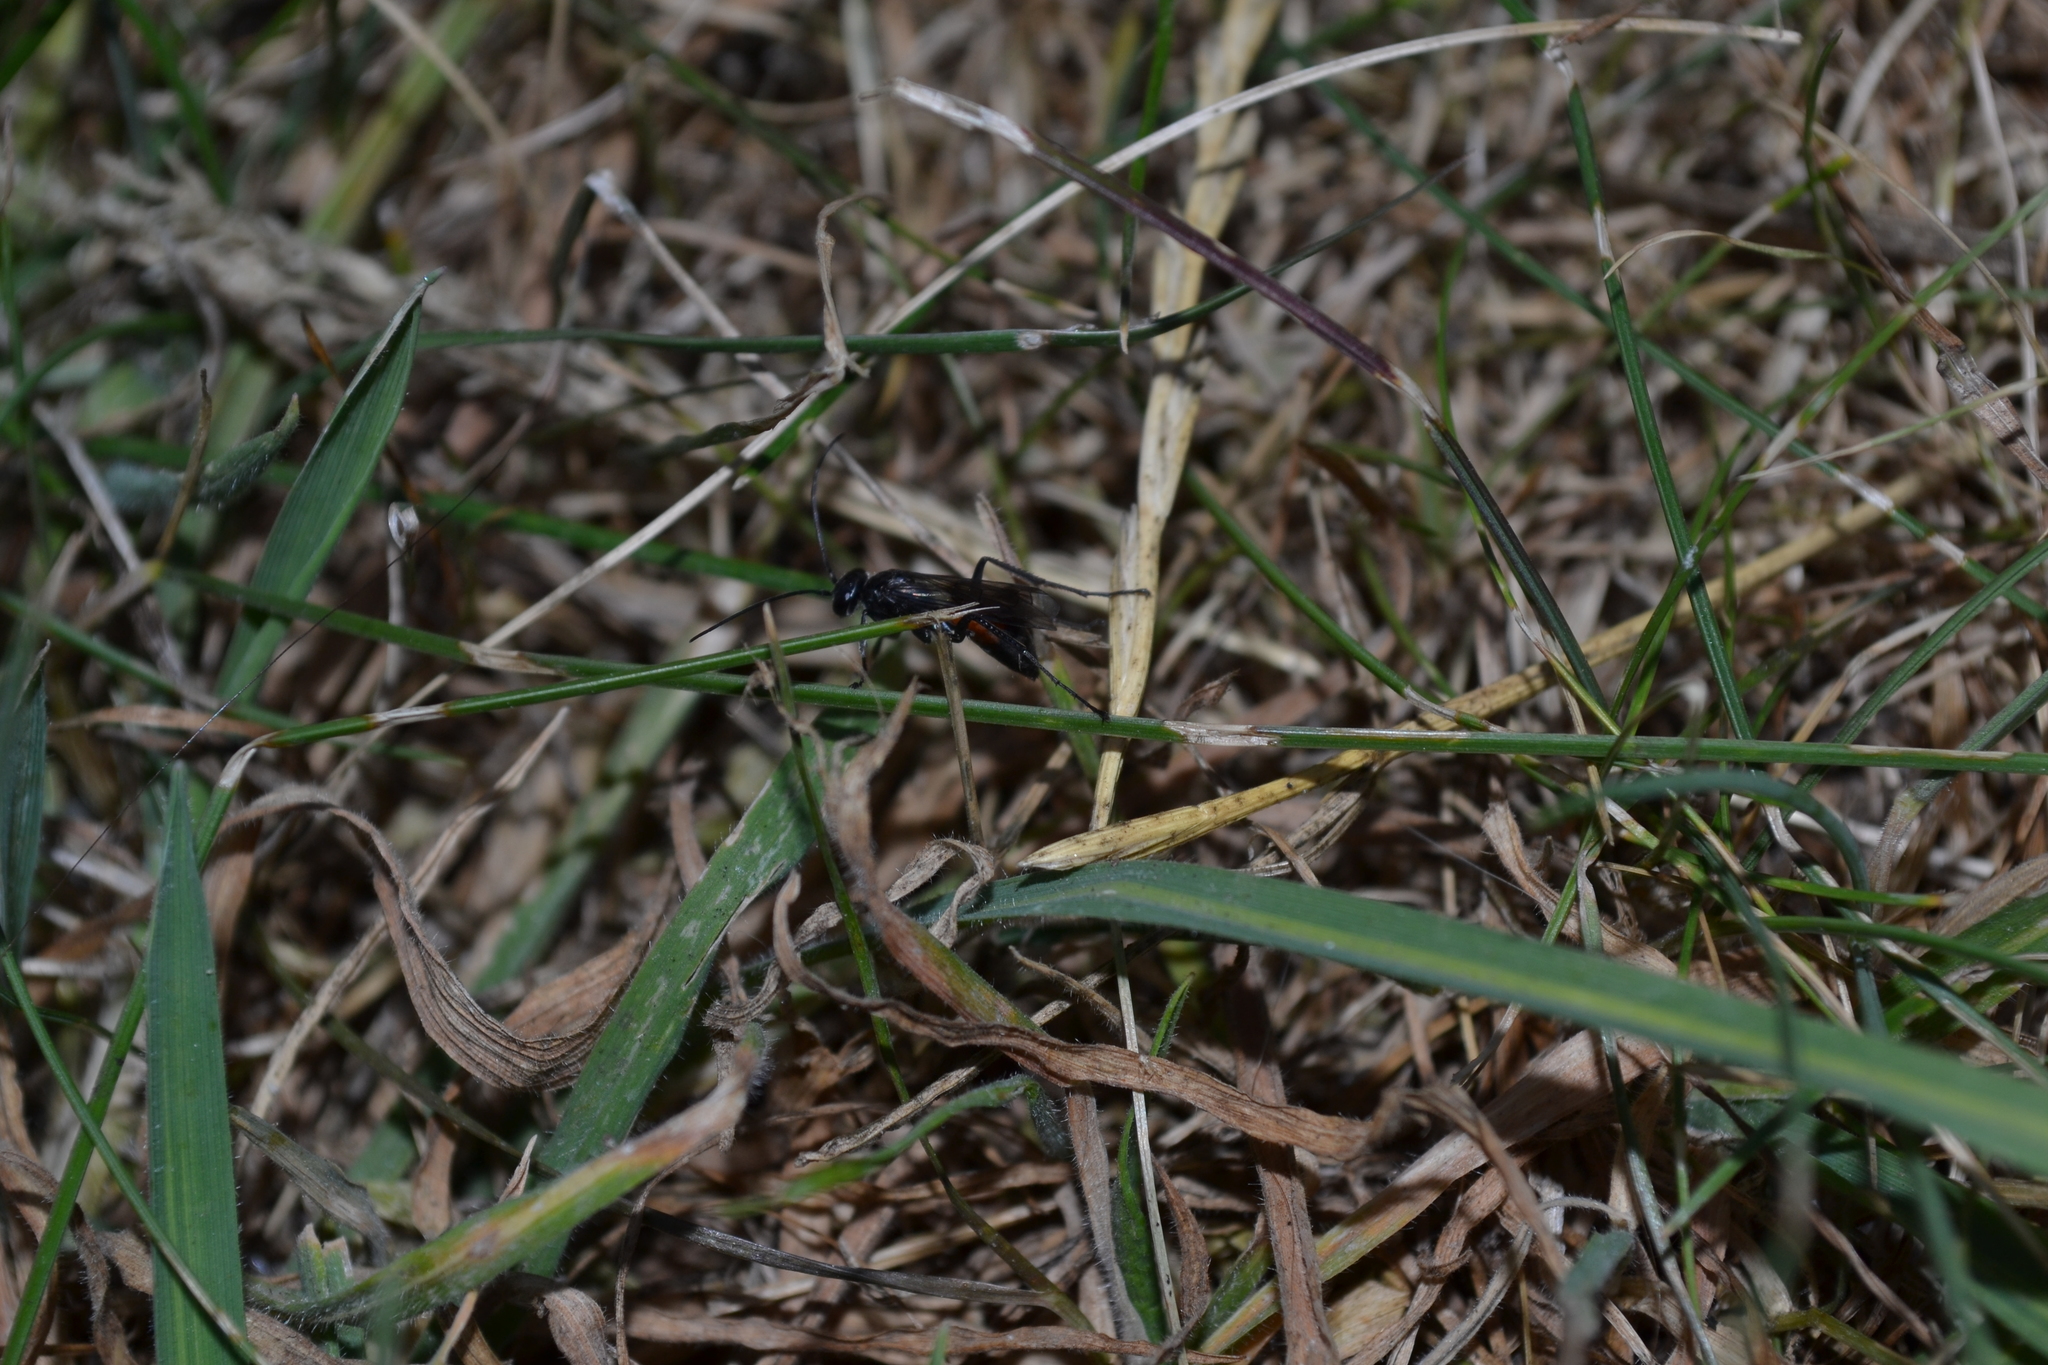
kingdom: Animalia
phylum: Arthropoda
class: Insecta
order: Hymenoptera
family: Pompilidae
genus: Caliadurgus
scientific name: Caliadurgus fasciatellus
